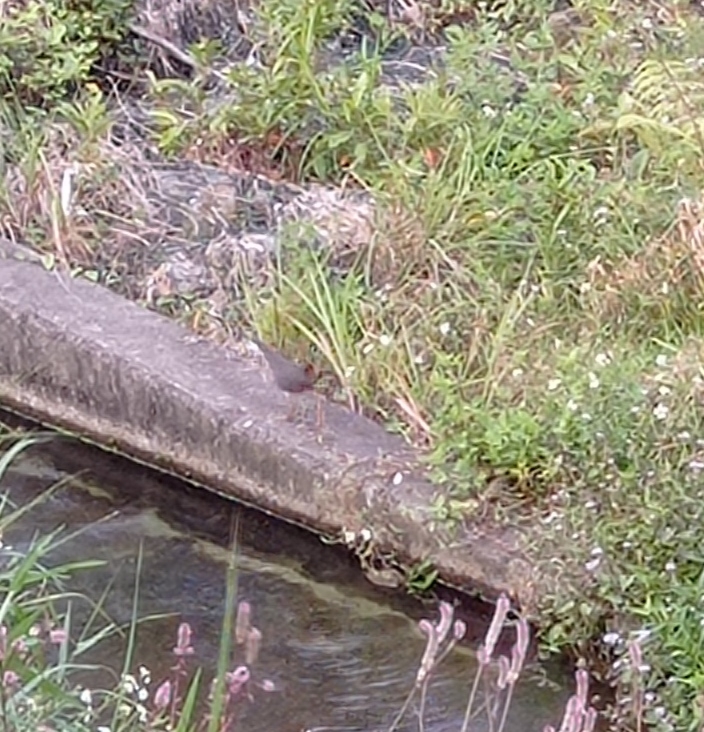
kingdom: Animalia
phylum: Chordata
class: Aves
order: Gruiformes
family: Rallidae
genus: Amaurornis
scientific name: Amaurornis phoenicurus
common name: White-breasted waterhen
